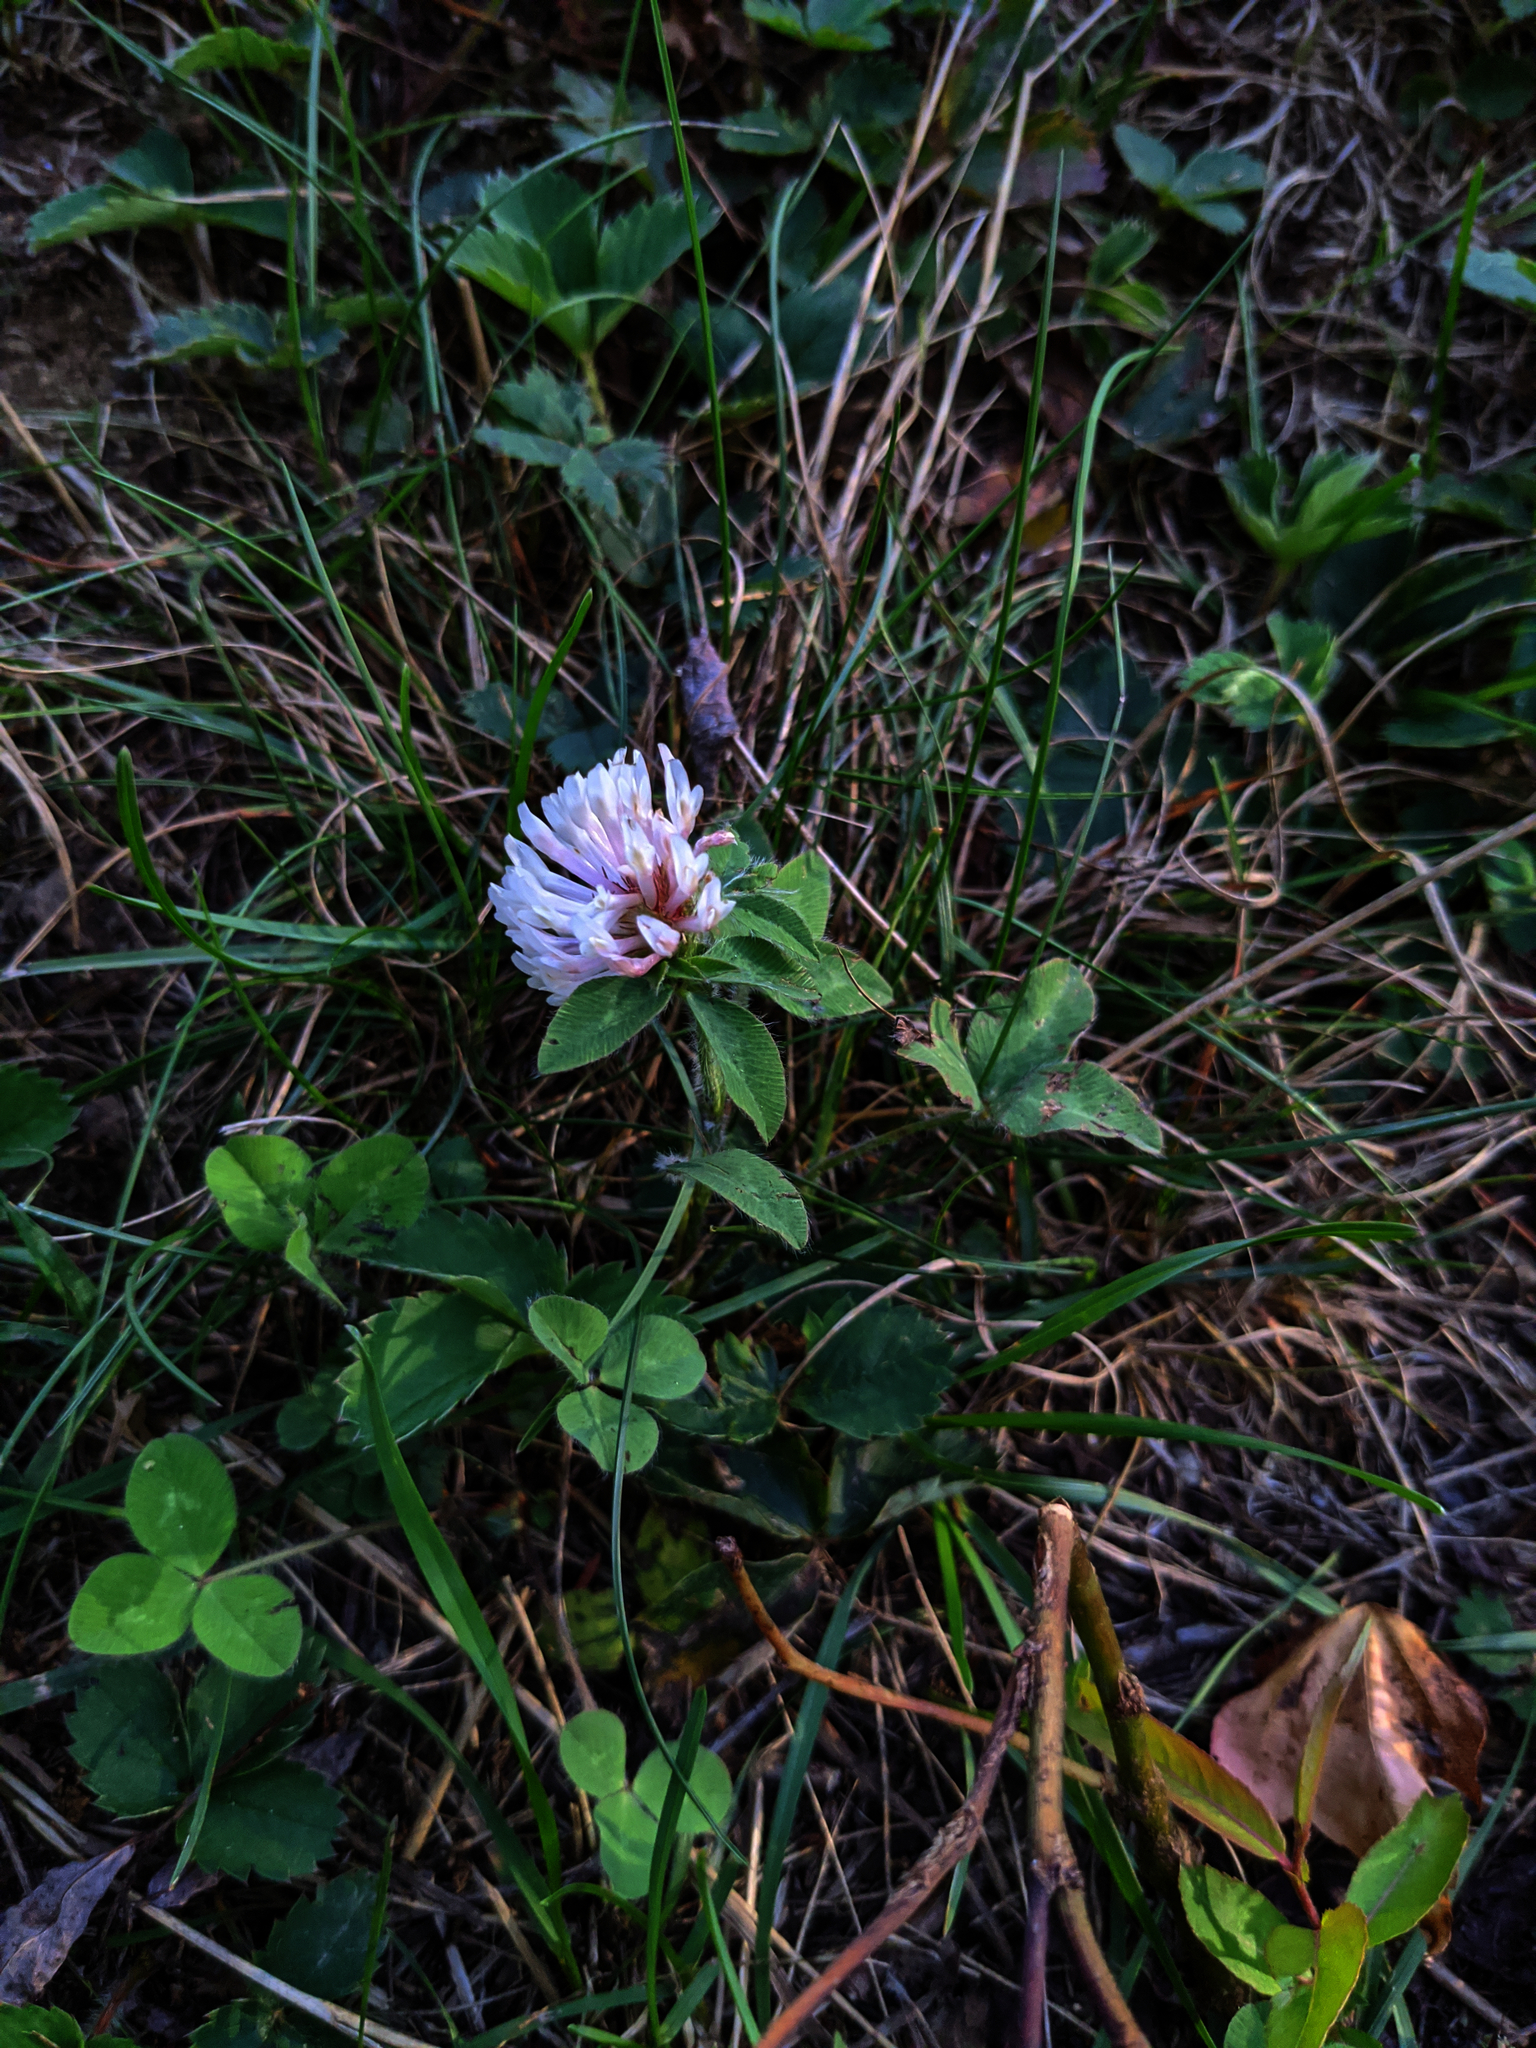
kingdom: Plantae
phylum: Tracheophyta
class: Magnoliopsida
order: Fabales
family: Fabaceae
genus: Trifolium
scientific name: Trifolium pratense
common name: Red clover
